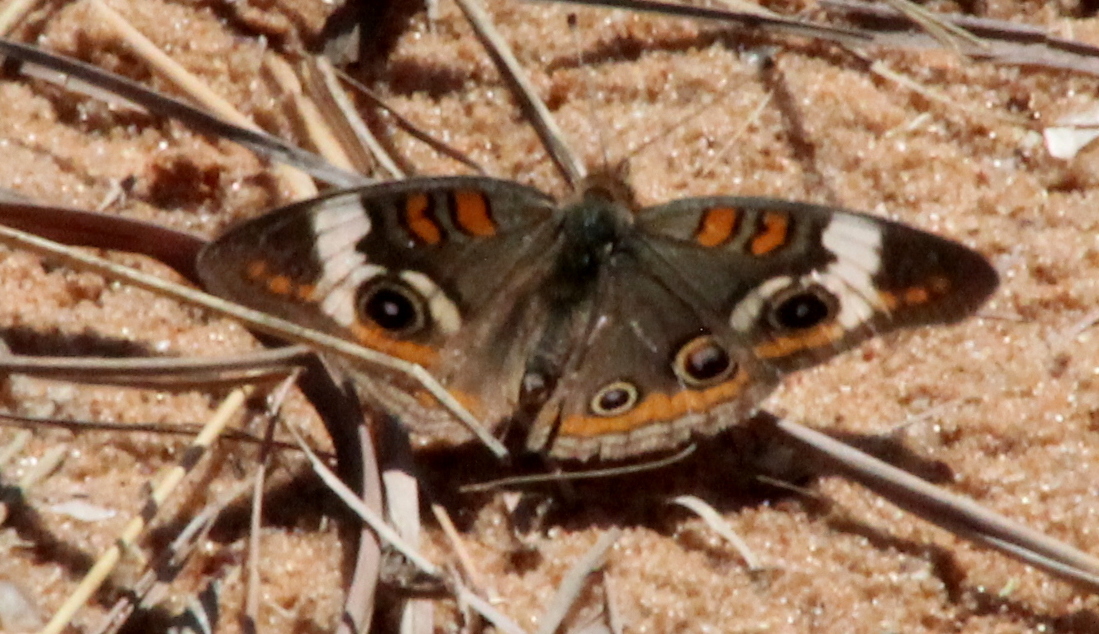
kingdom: Animalia
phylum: Arthropoda
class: Insecta
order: Lepidoptera
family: Nymphalidae
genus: Junonia
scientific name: Junonia coenia
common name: Common buckeye
